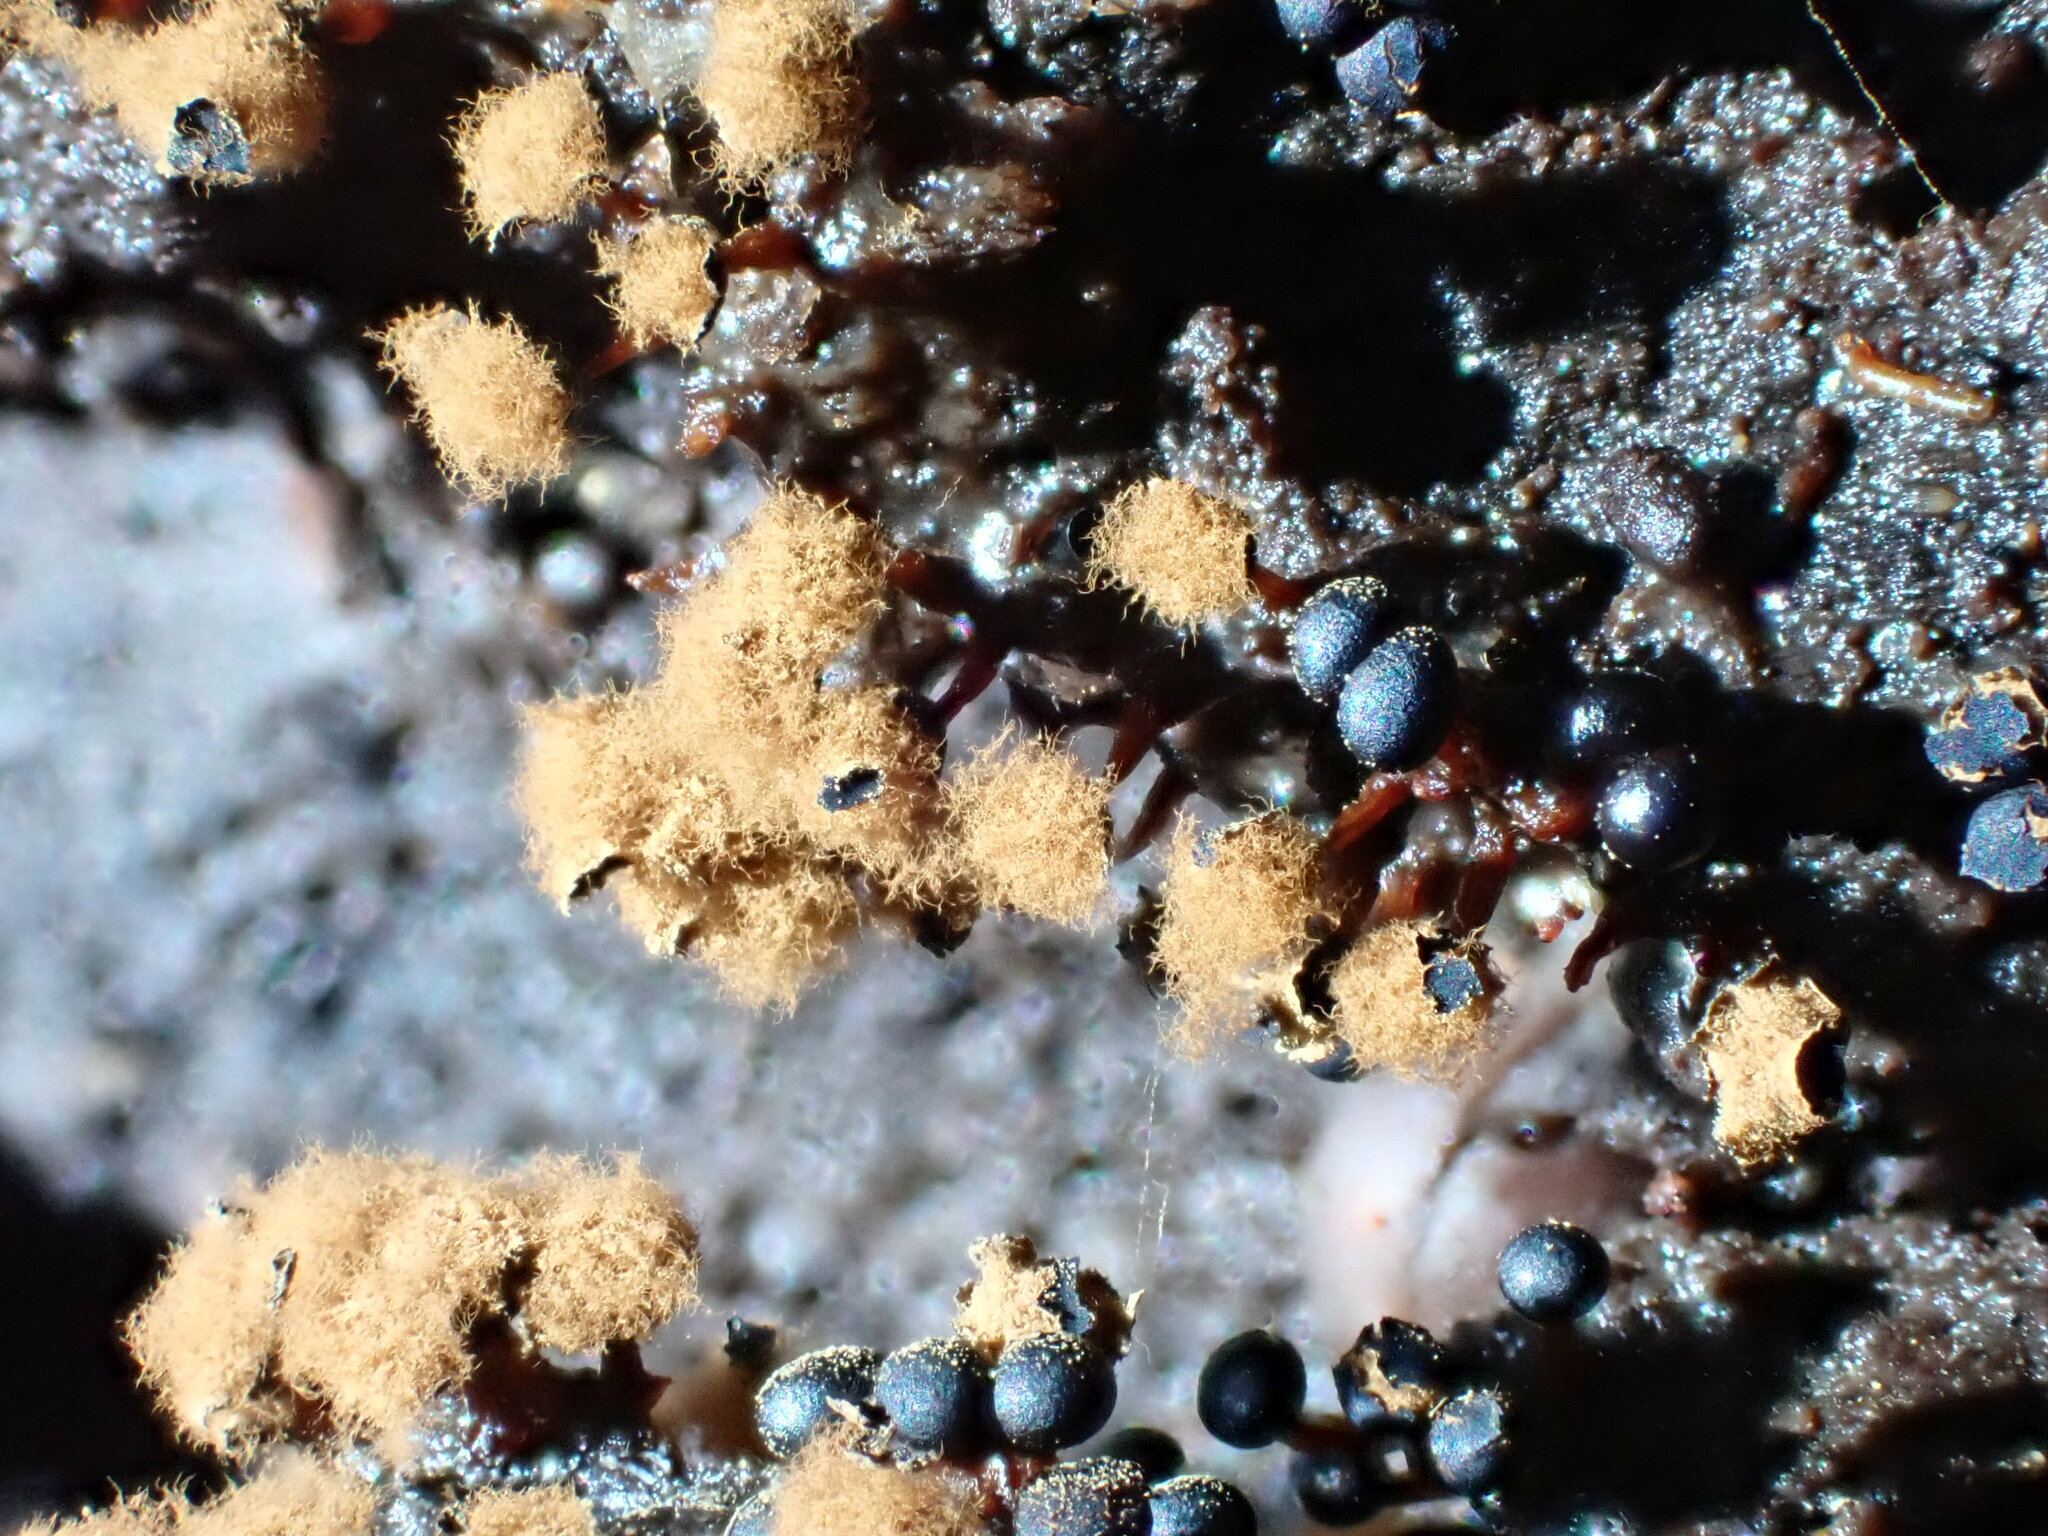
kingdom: Protozoa
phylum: Mycetozoa
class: Myxomycetes
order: Trichiales
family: Trichiaceae
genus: Metatrichia
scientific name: Metatrichia floriformis
